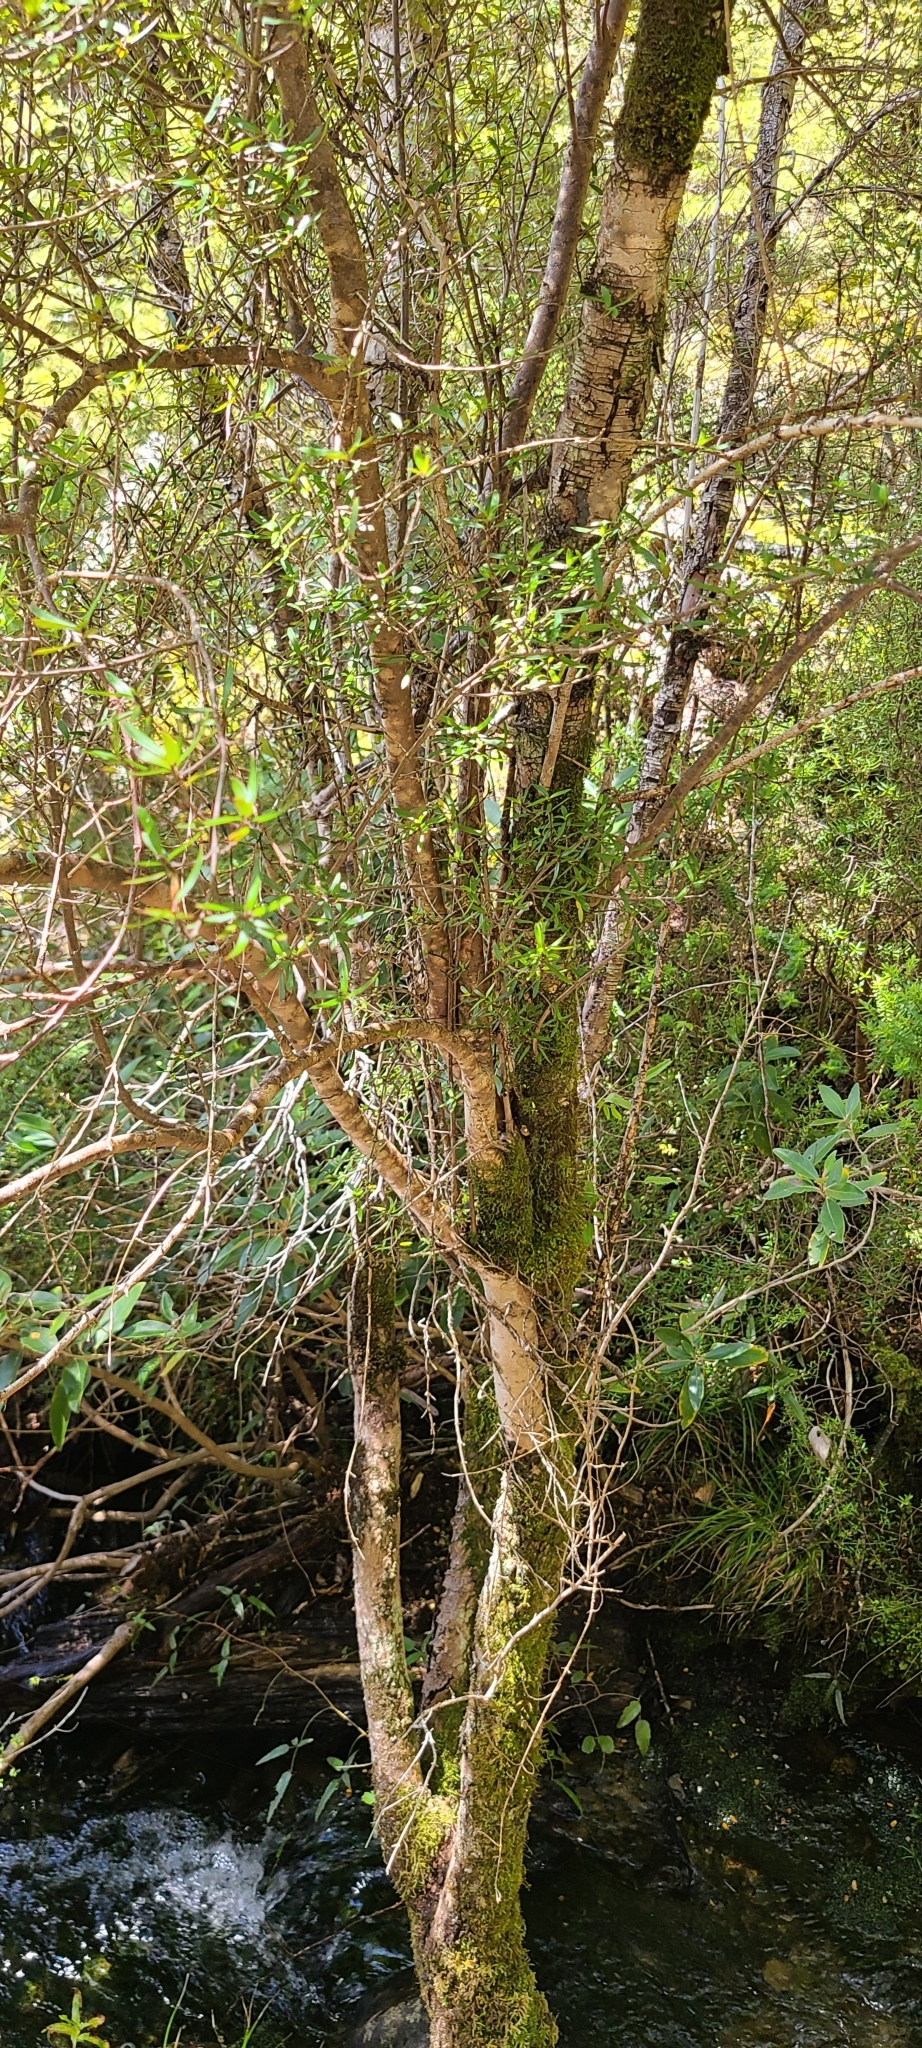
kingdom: Plantae
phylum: Tracheophyta
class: Magnoliopsida
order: Gentianales
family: Rubiaceae
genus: Coprosma
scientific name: Coprosma linariifolia
